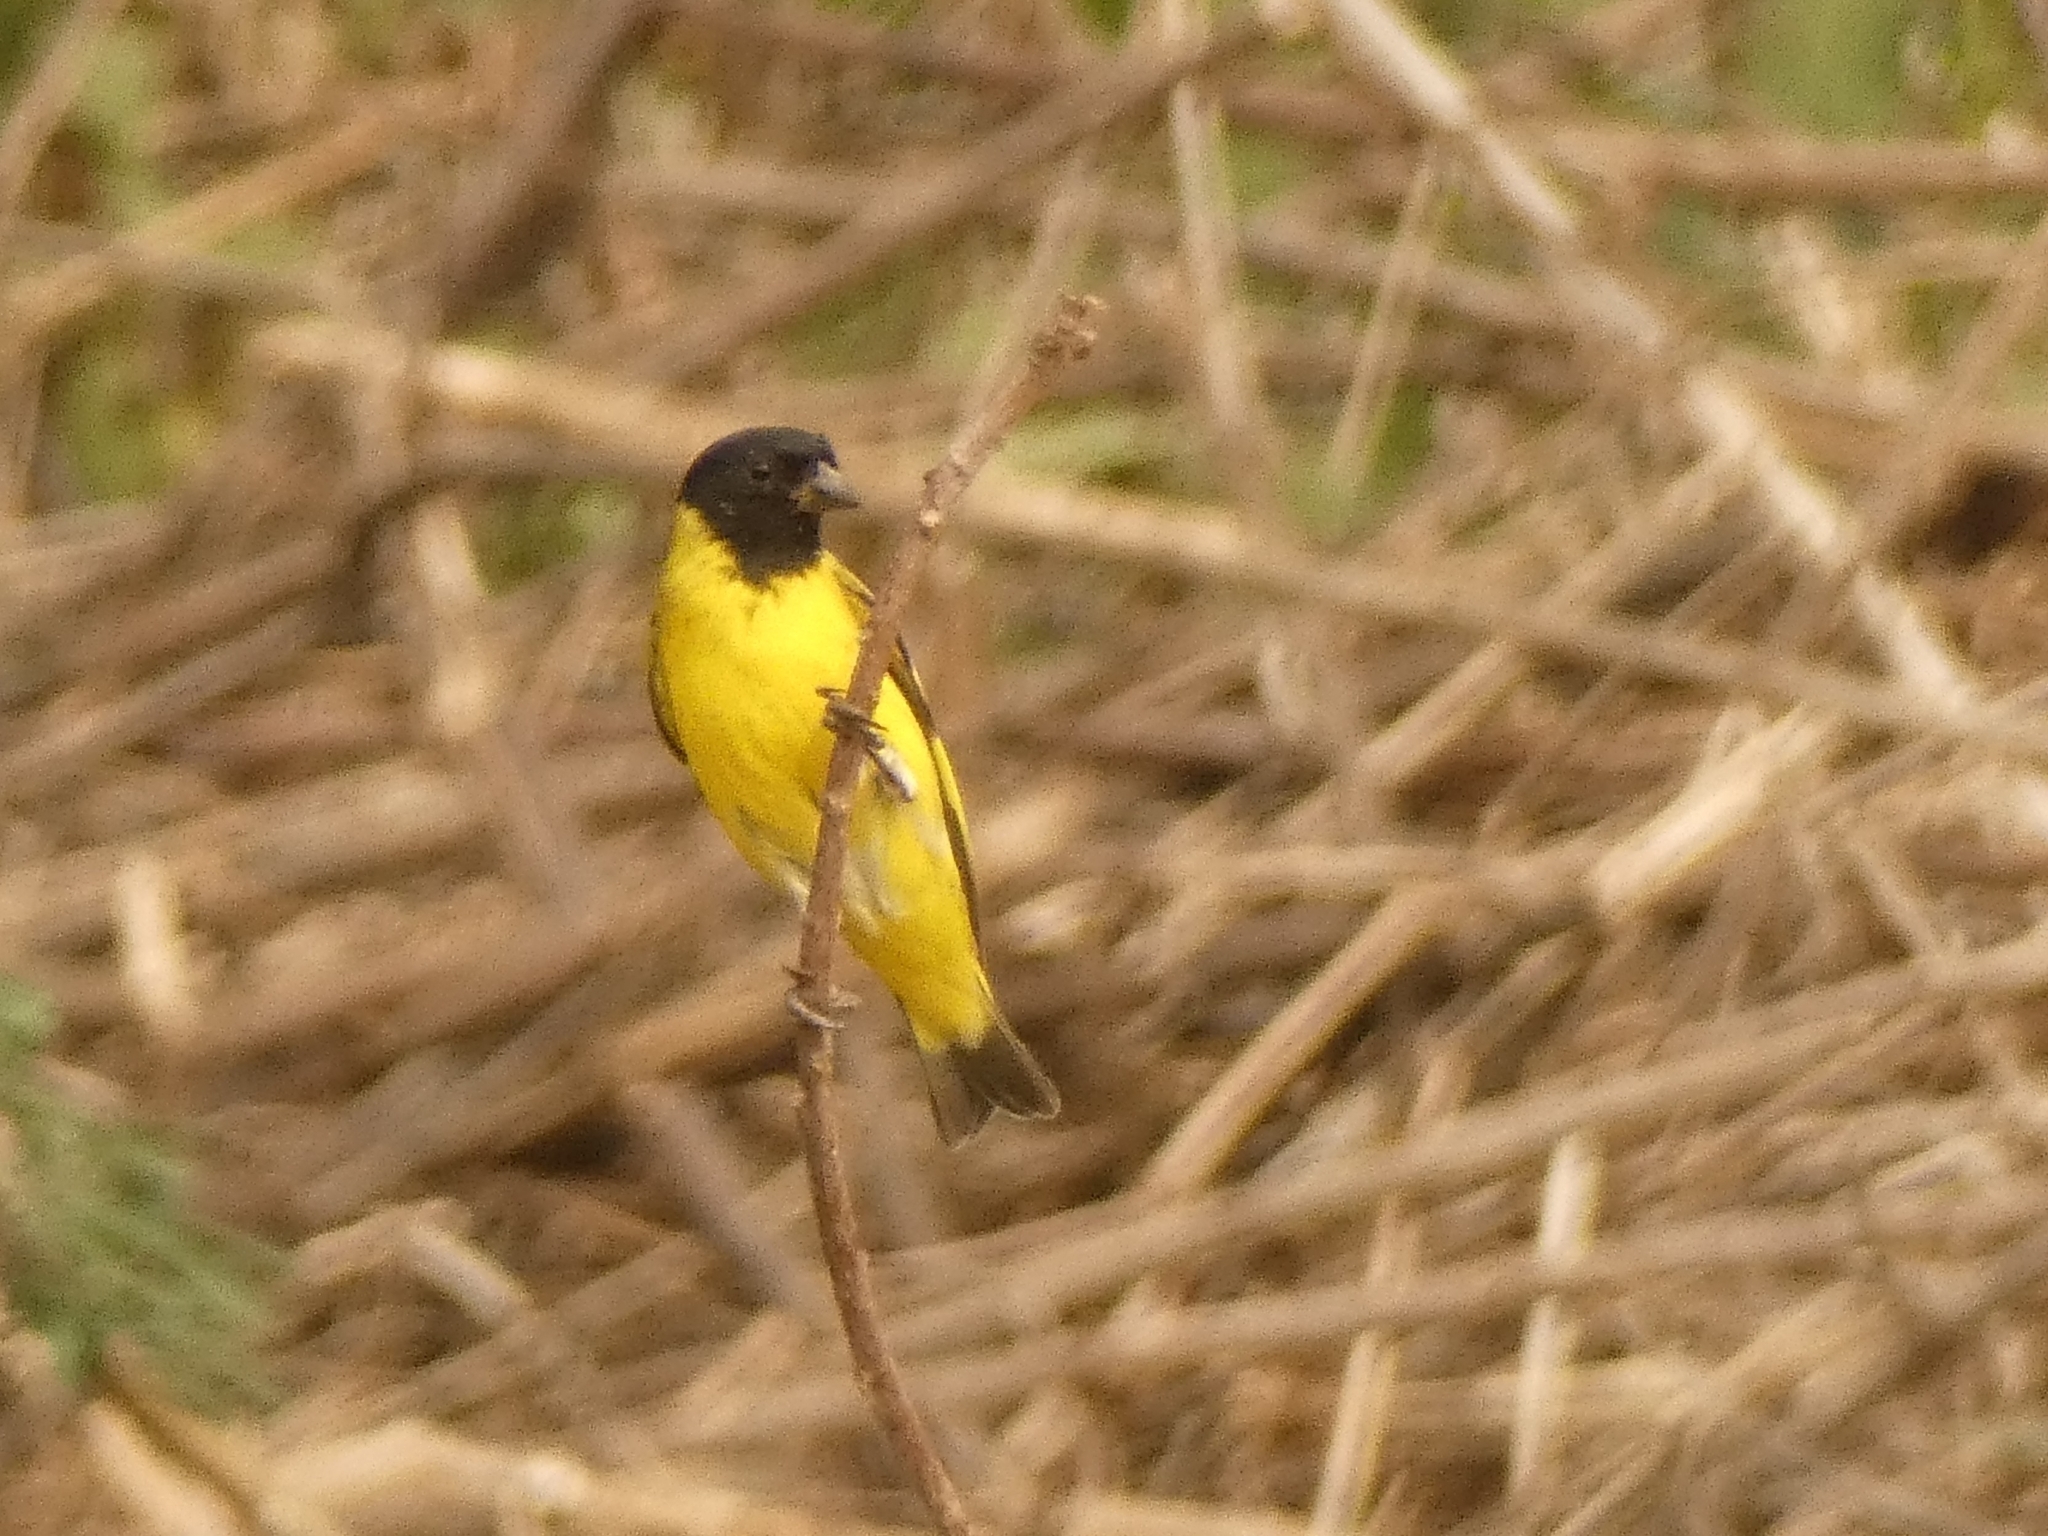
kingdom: Animalia
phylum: Chordata
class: Aves
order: Passeriformes
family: Fringillidae
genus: Spinus
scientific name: Spinus magellanicus
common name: Hooded siskin
